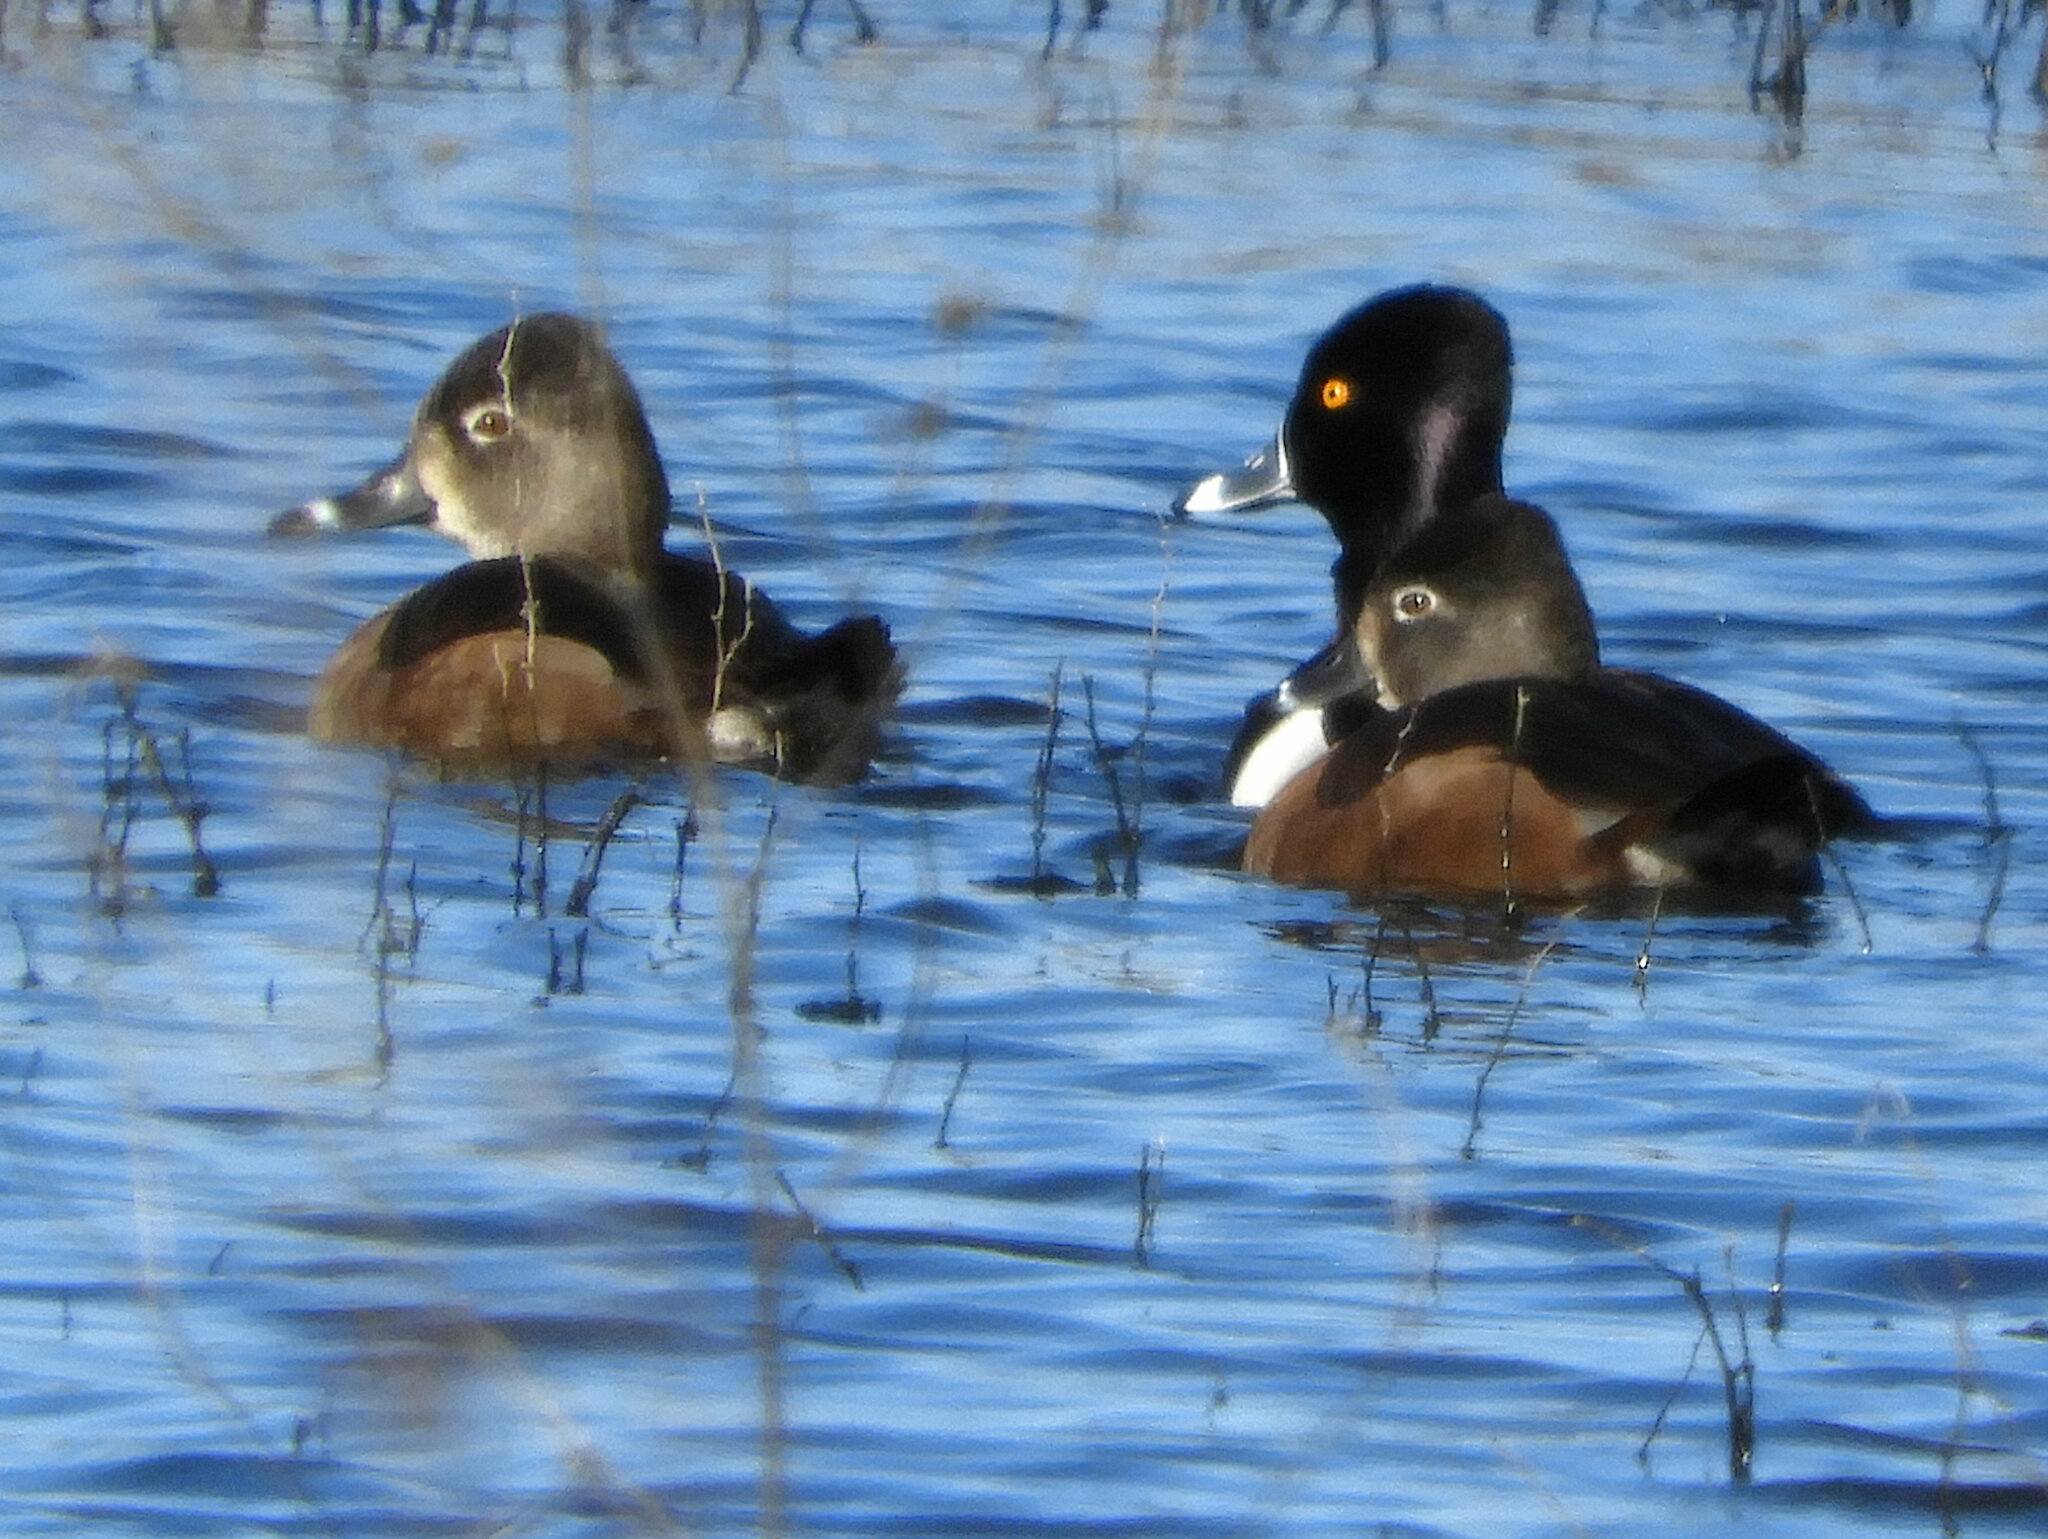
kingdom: Animalia
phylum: Chordata
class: Aves
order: Anseriformes
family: Anatidae
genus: Aythya
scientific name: Aythya collaris
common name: Ring-necked duck
